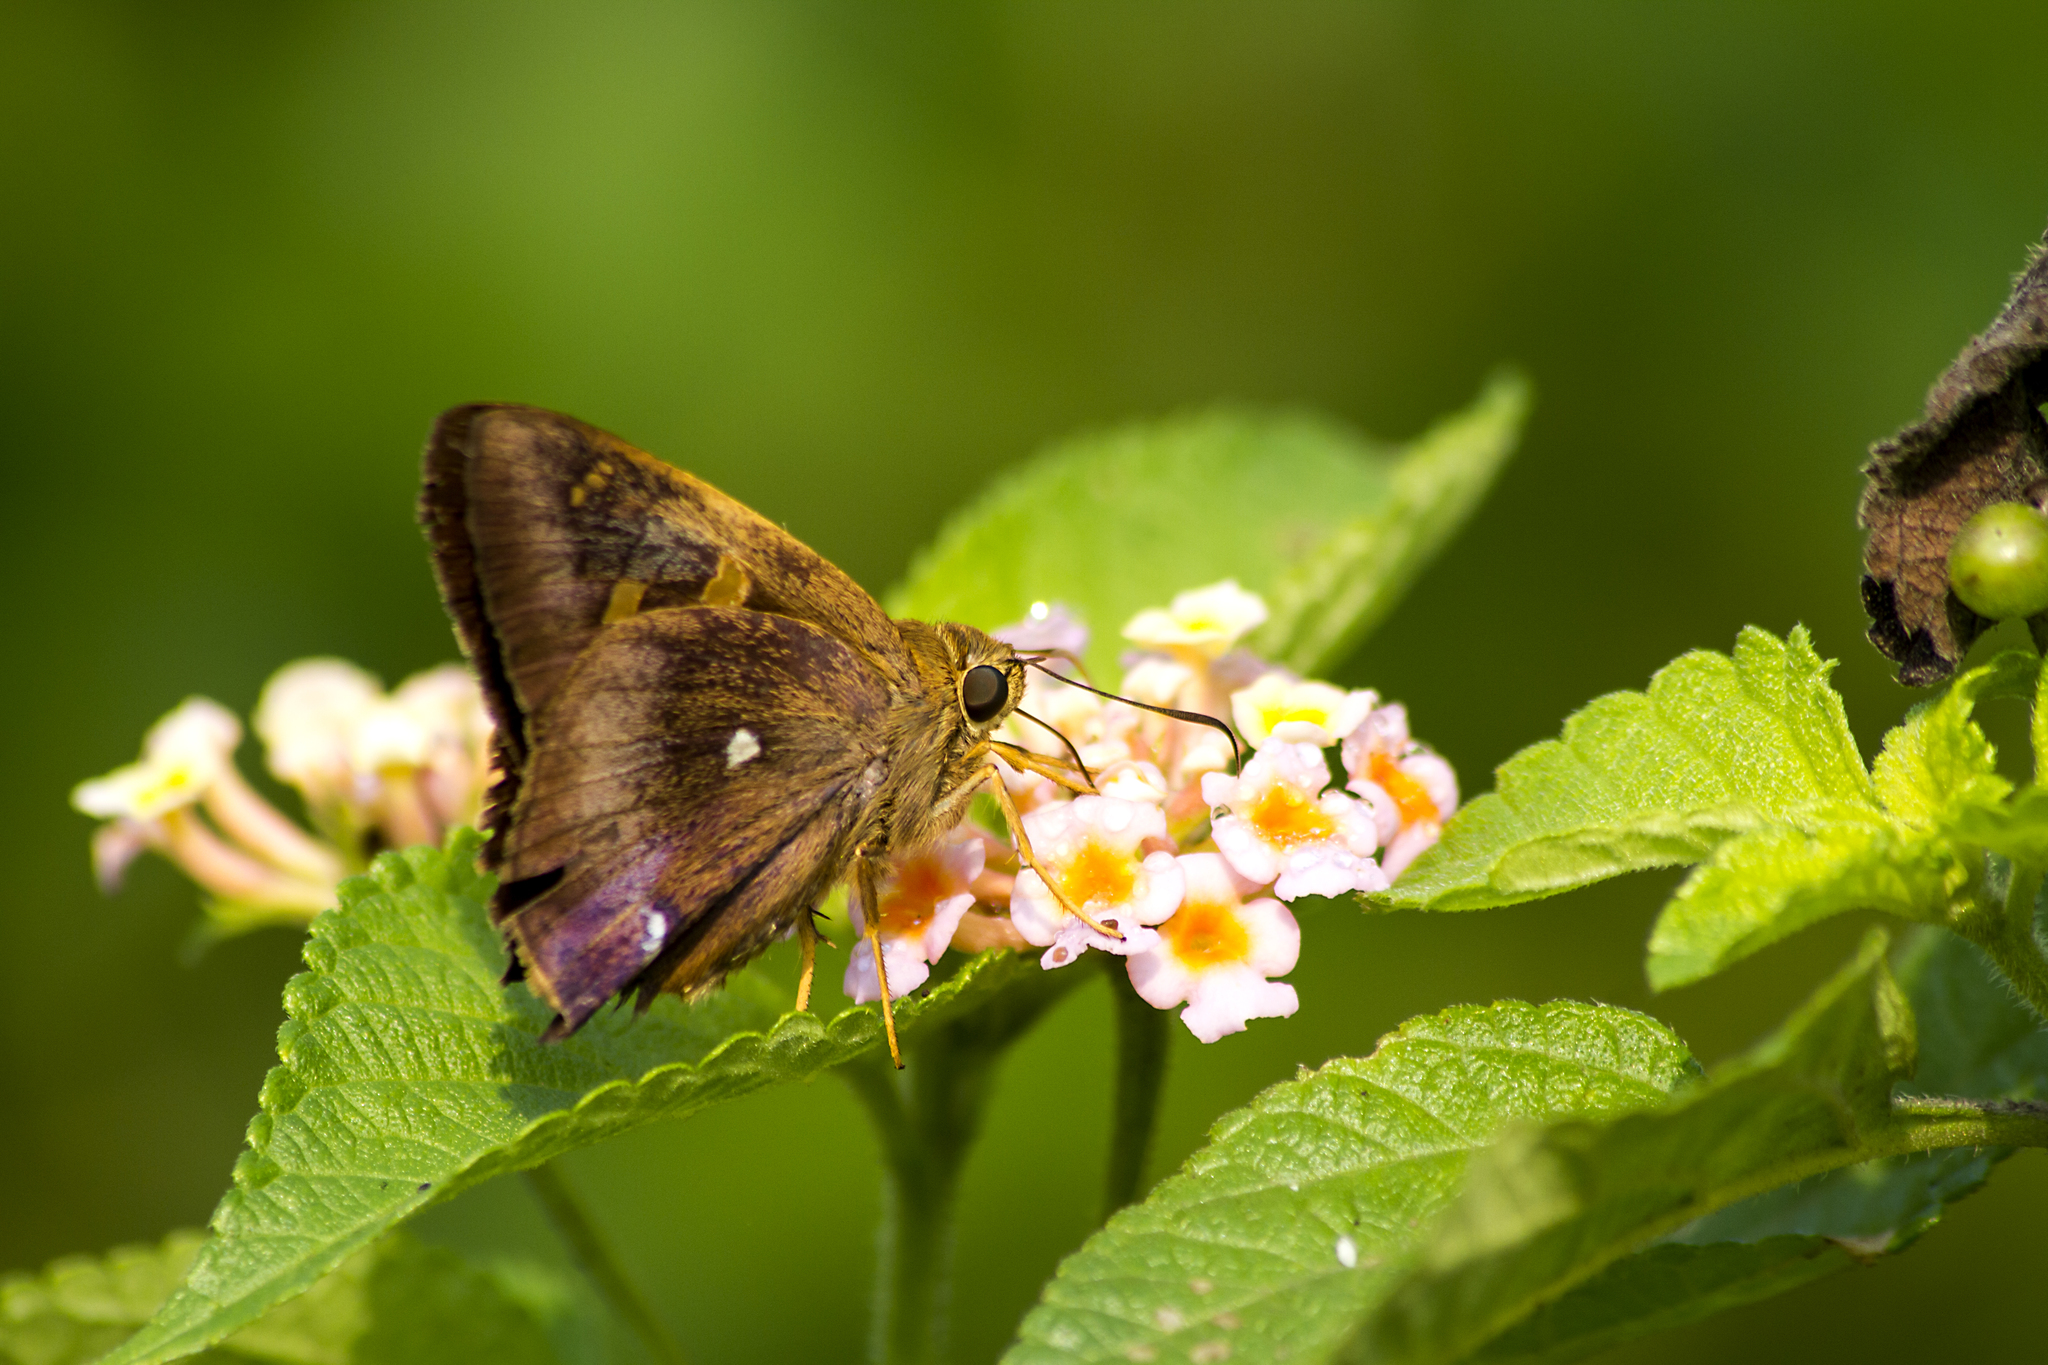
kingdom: Animalia
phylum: Arthropoda
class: Insecta
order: Lepidoptera
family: Hesperiidae
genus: Hasora
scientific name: Hasora badra
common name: Common awl
